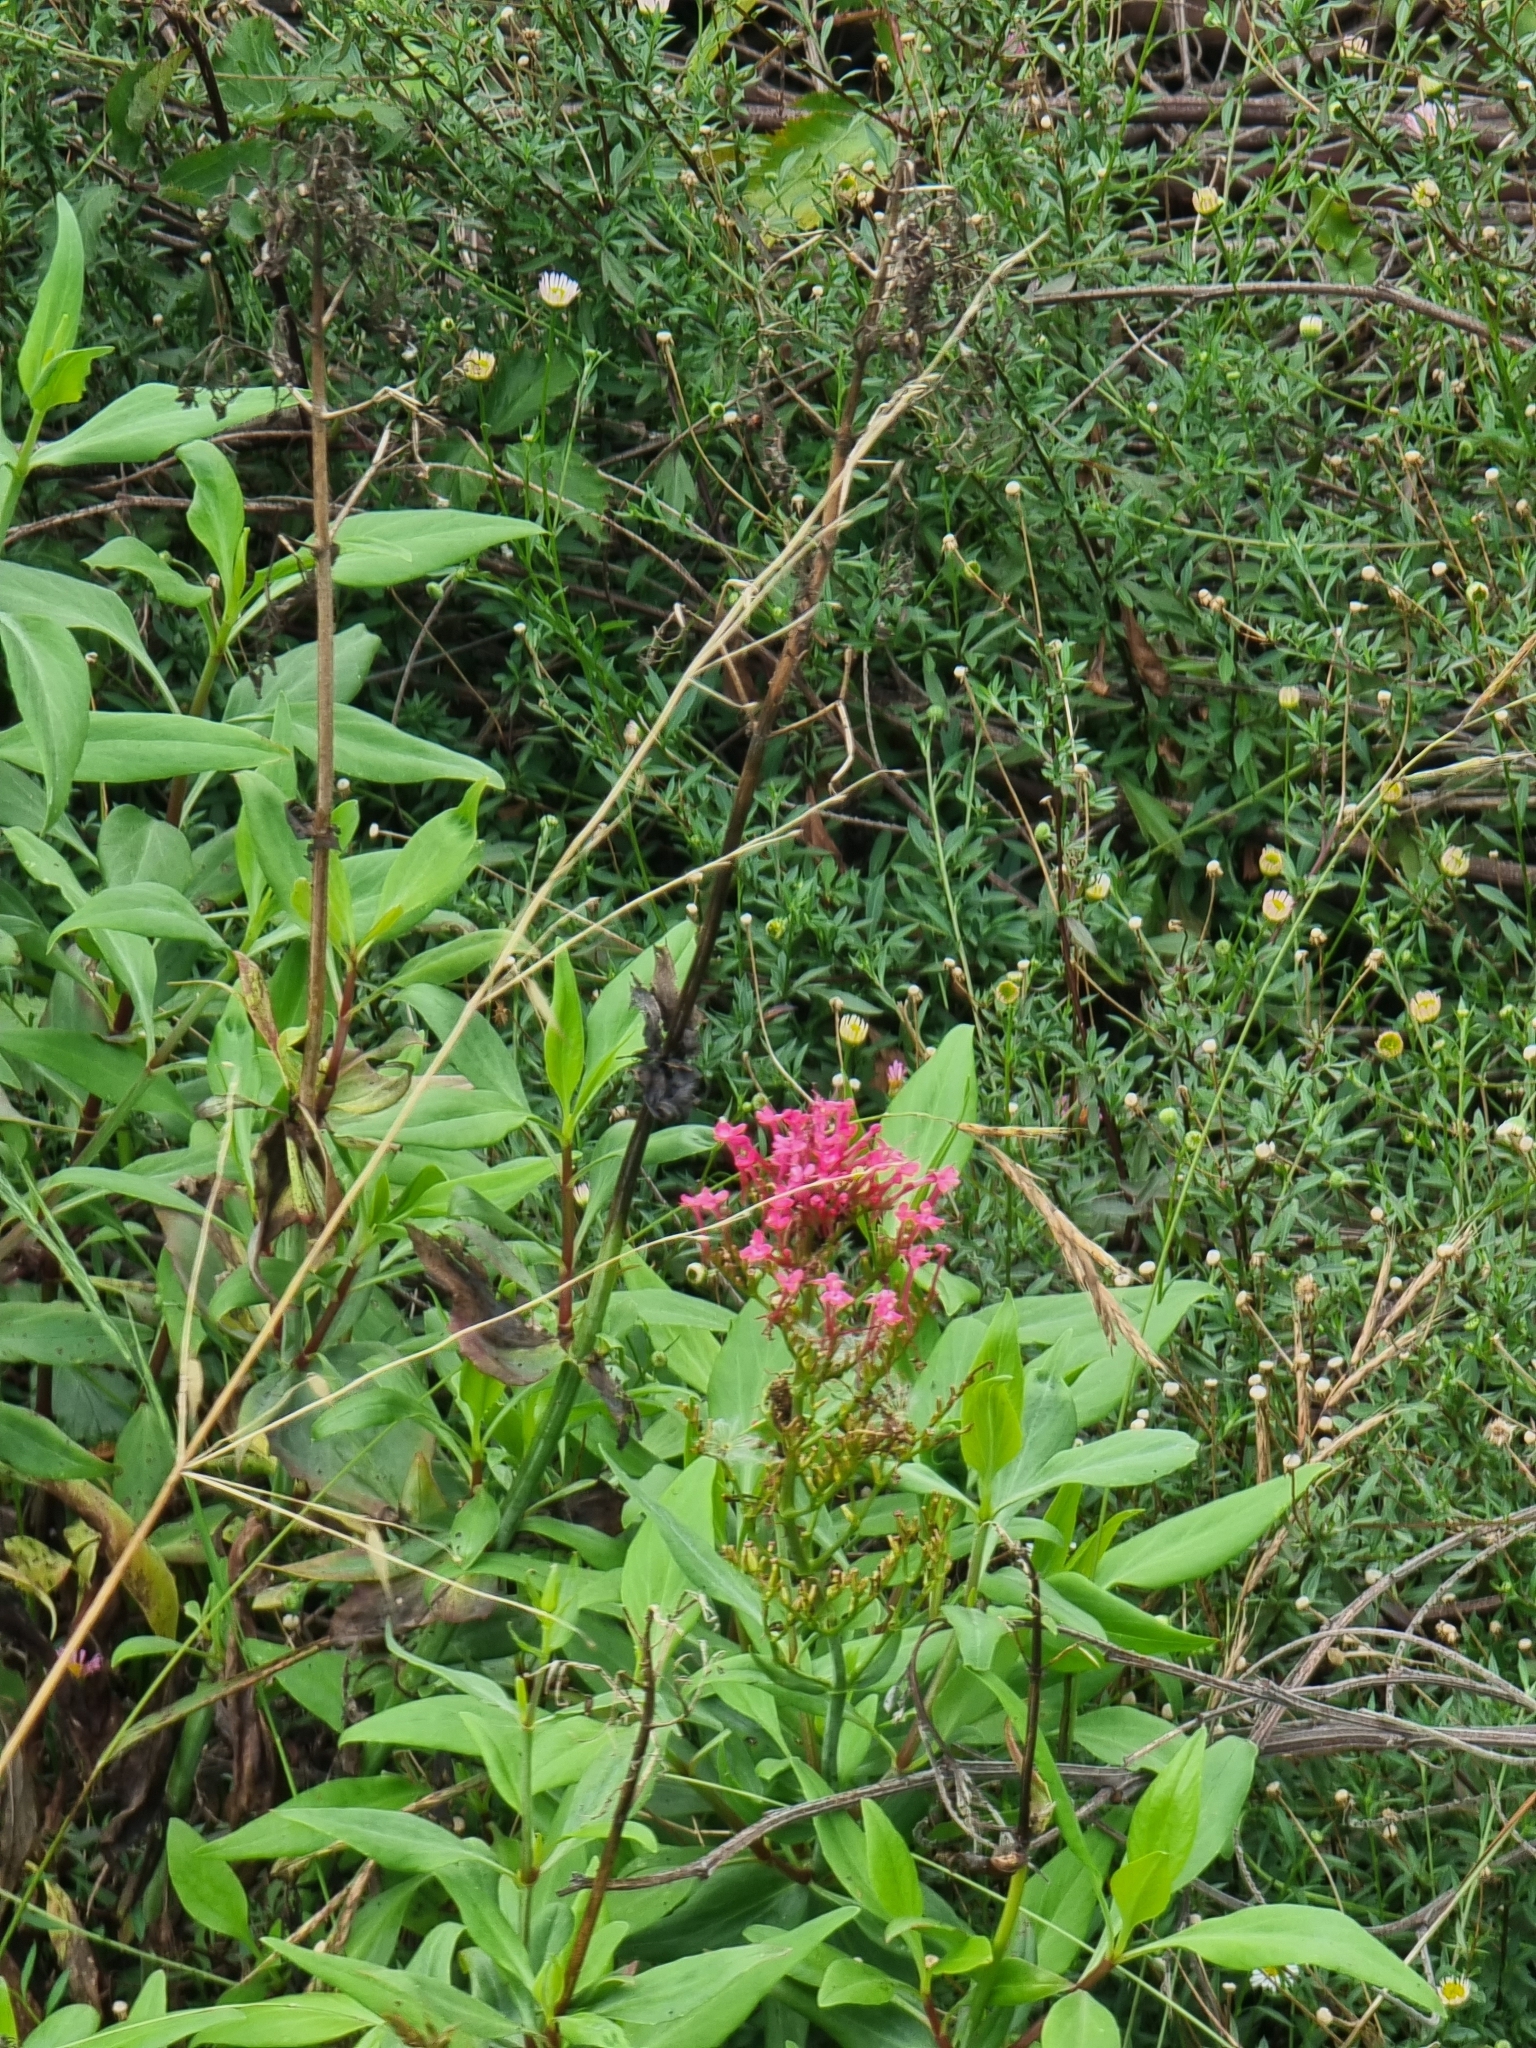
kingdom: Plantae
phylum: Tracheophyta
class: Magnoliopsida
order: Dipsacales
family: Caprifoliaceae
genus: Centranthus
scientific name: Centranthus ruber
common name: Red valerian
